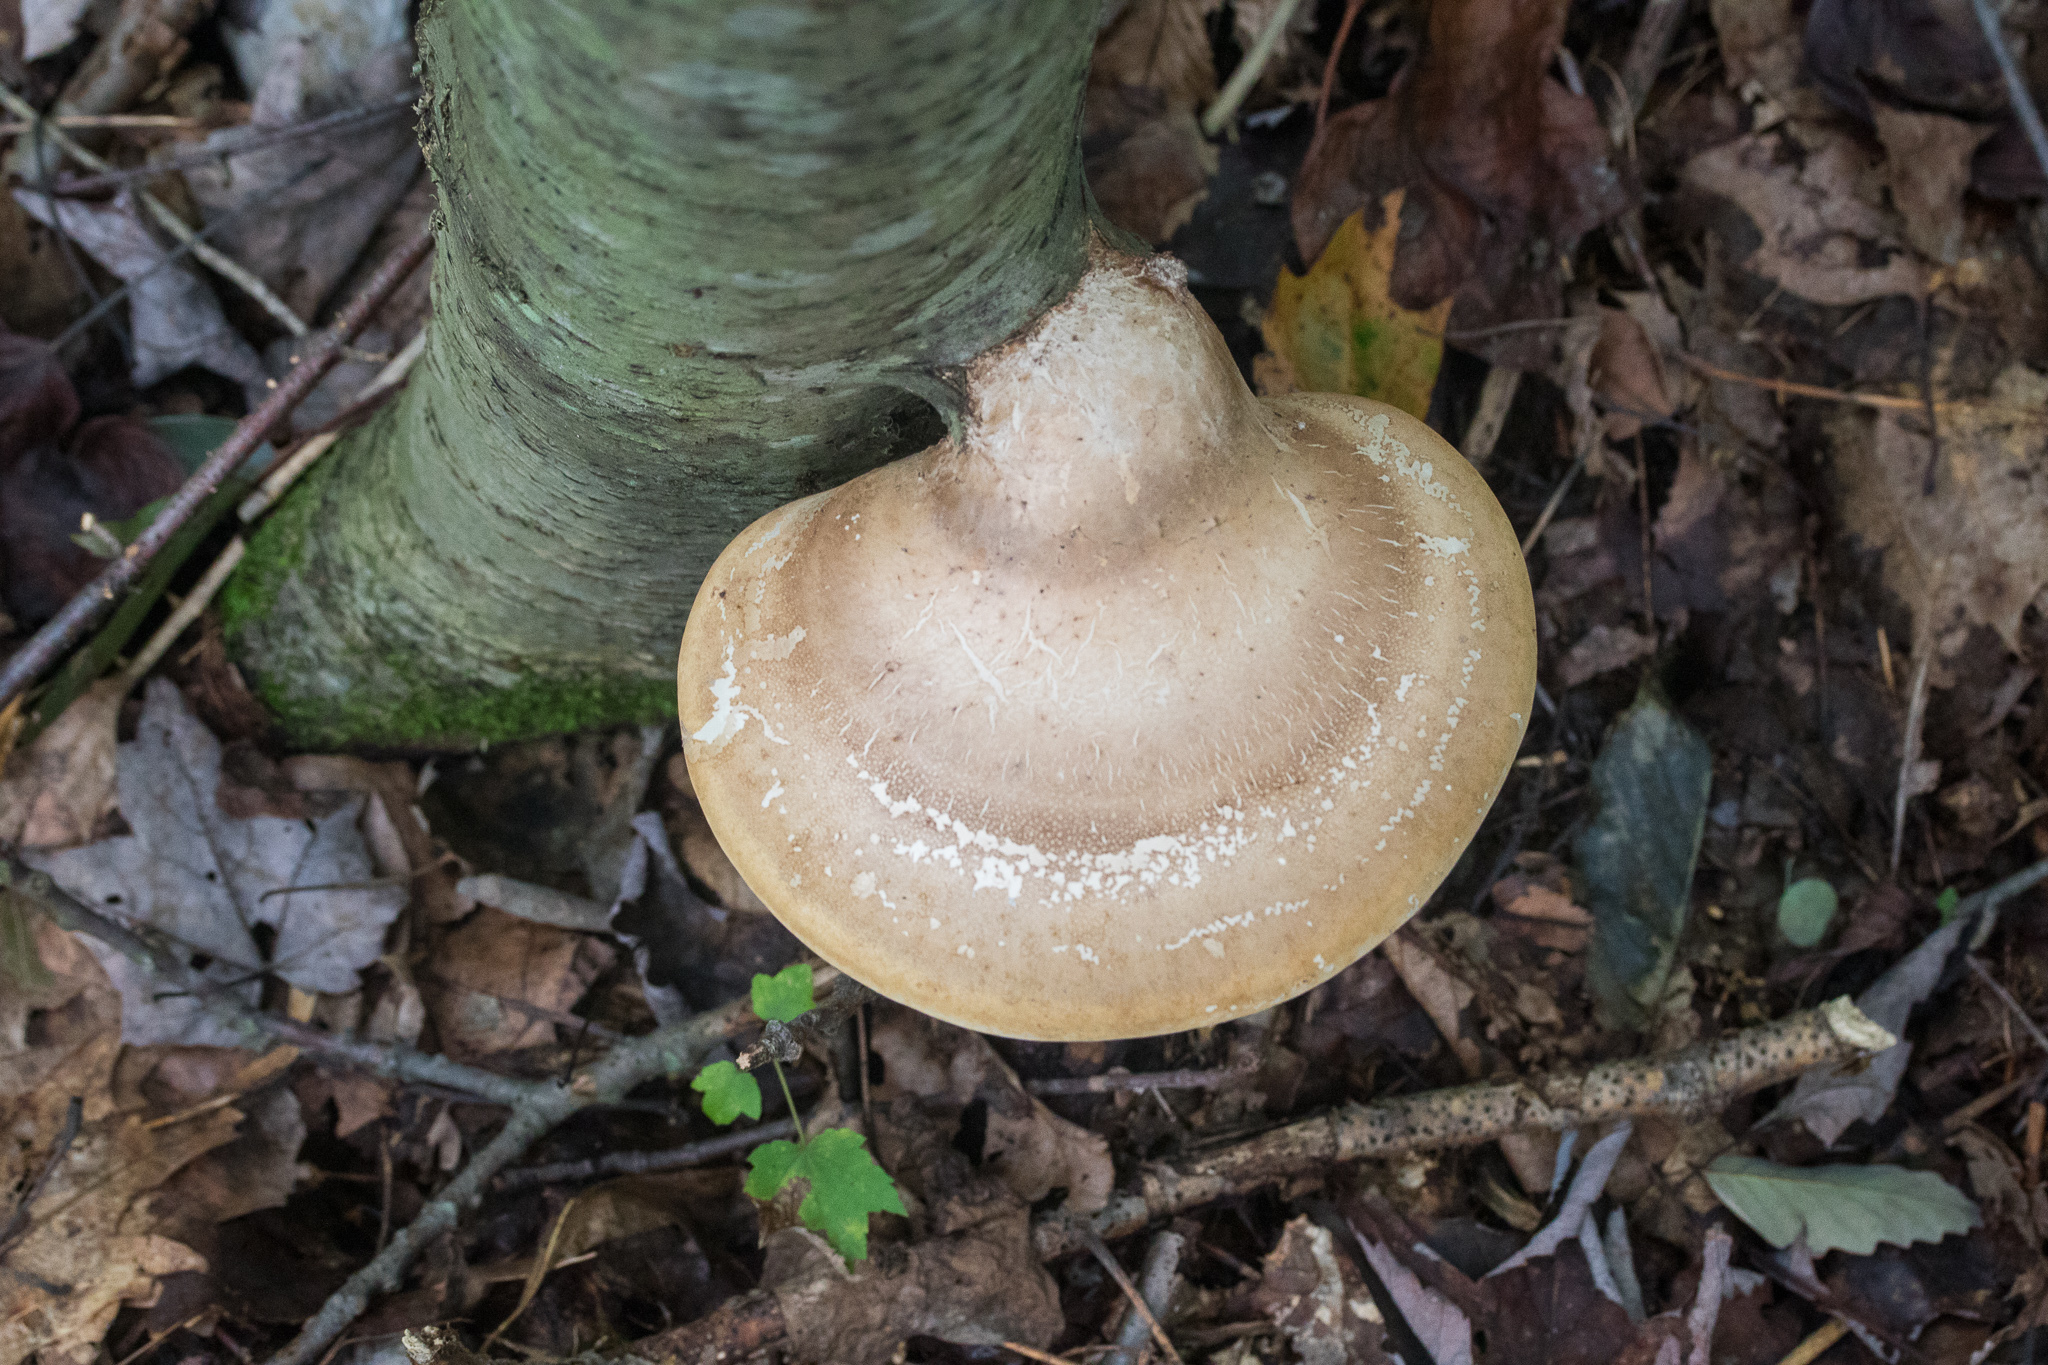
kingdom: Fungi
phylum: Basidiomycota
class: Agaricomycetes
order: Polyporales
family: Fomitopsidaceae
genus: Fomitopsis
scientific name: Fomitopsis betulina
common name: Birch polypore
